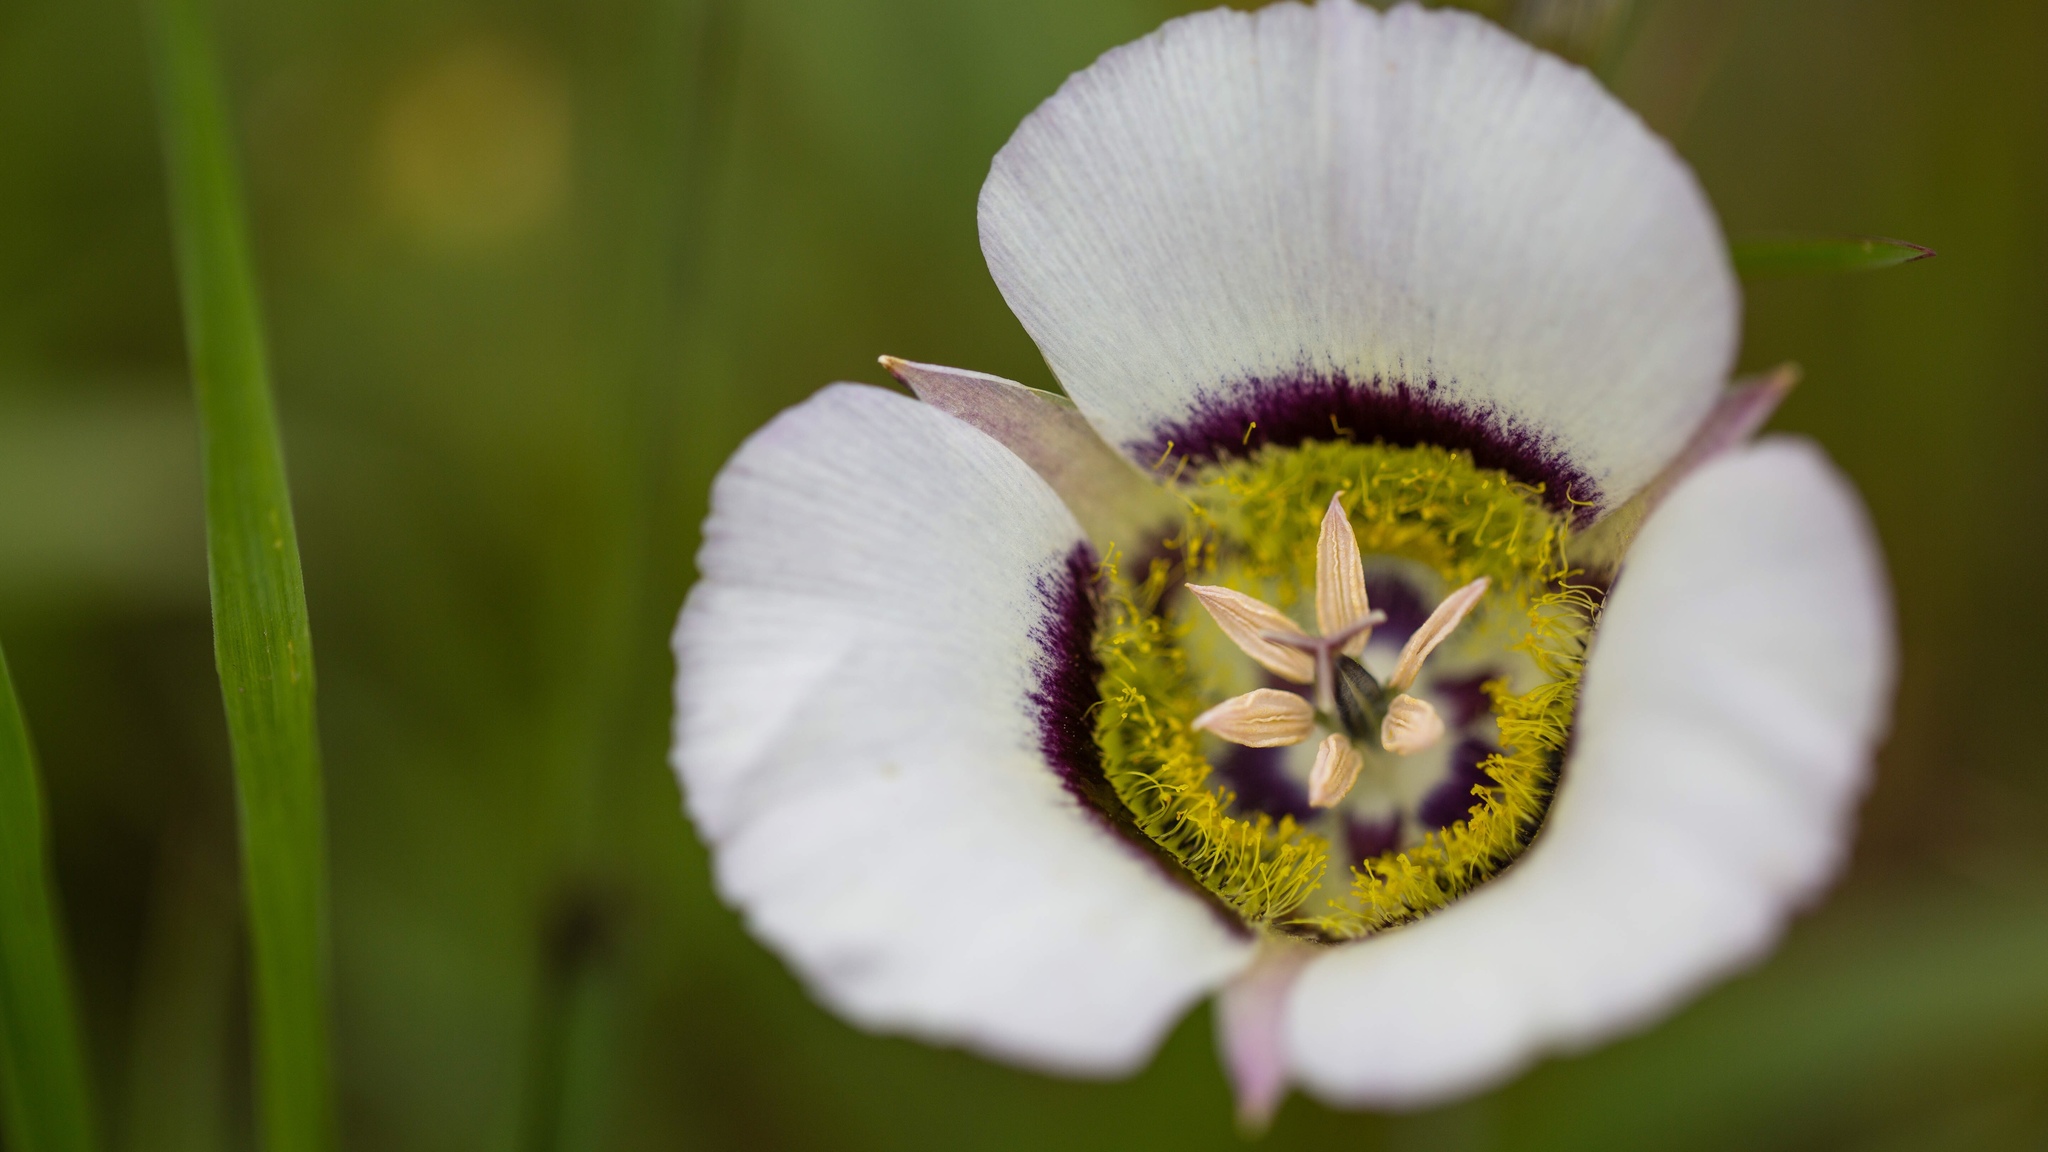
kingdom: Plantae
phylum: Tracheophyta
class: Liliopsida
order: Liliales
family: Liliaceae
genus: Calochortus
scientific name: Calochortus gunnisonii
